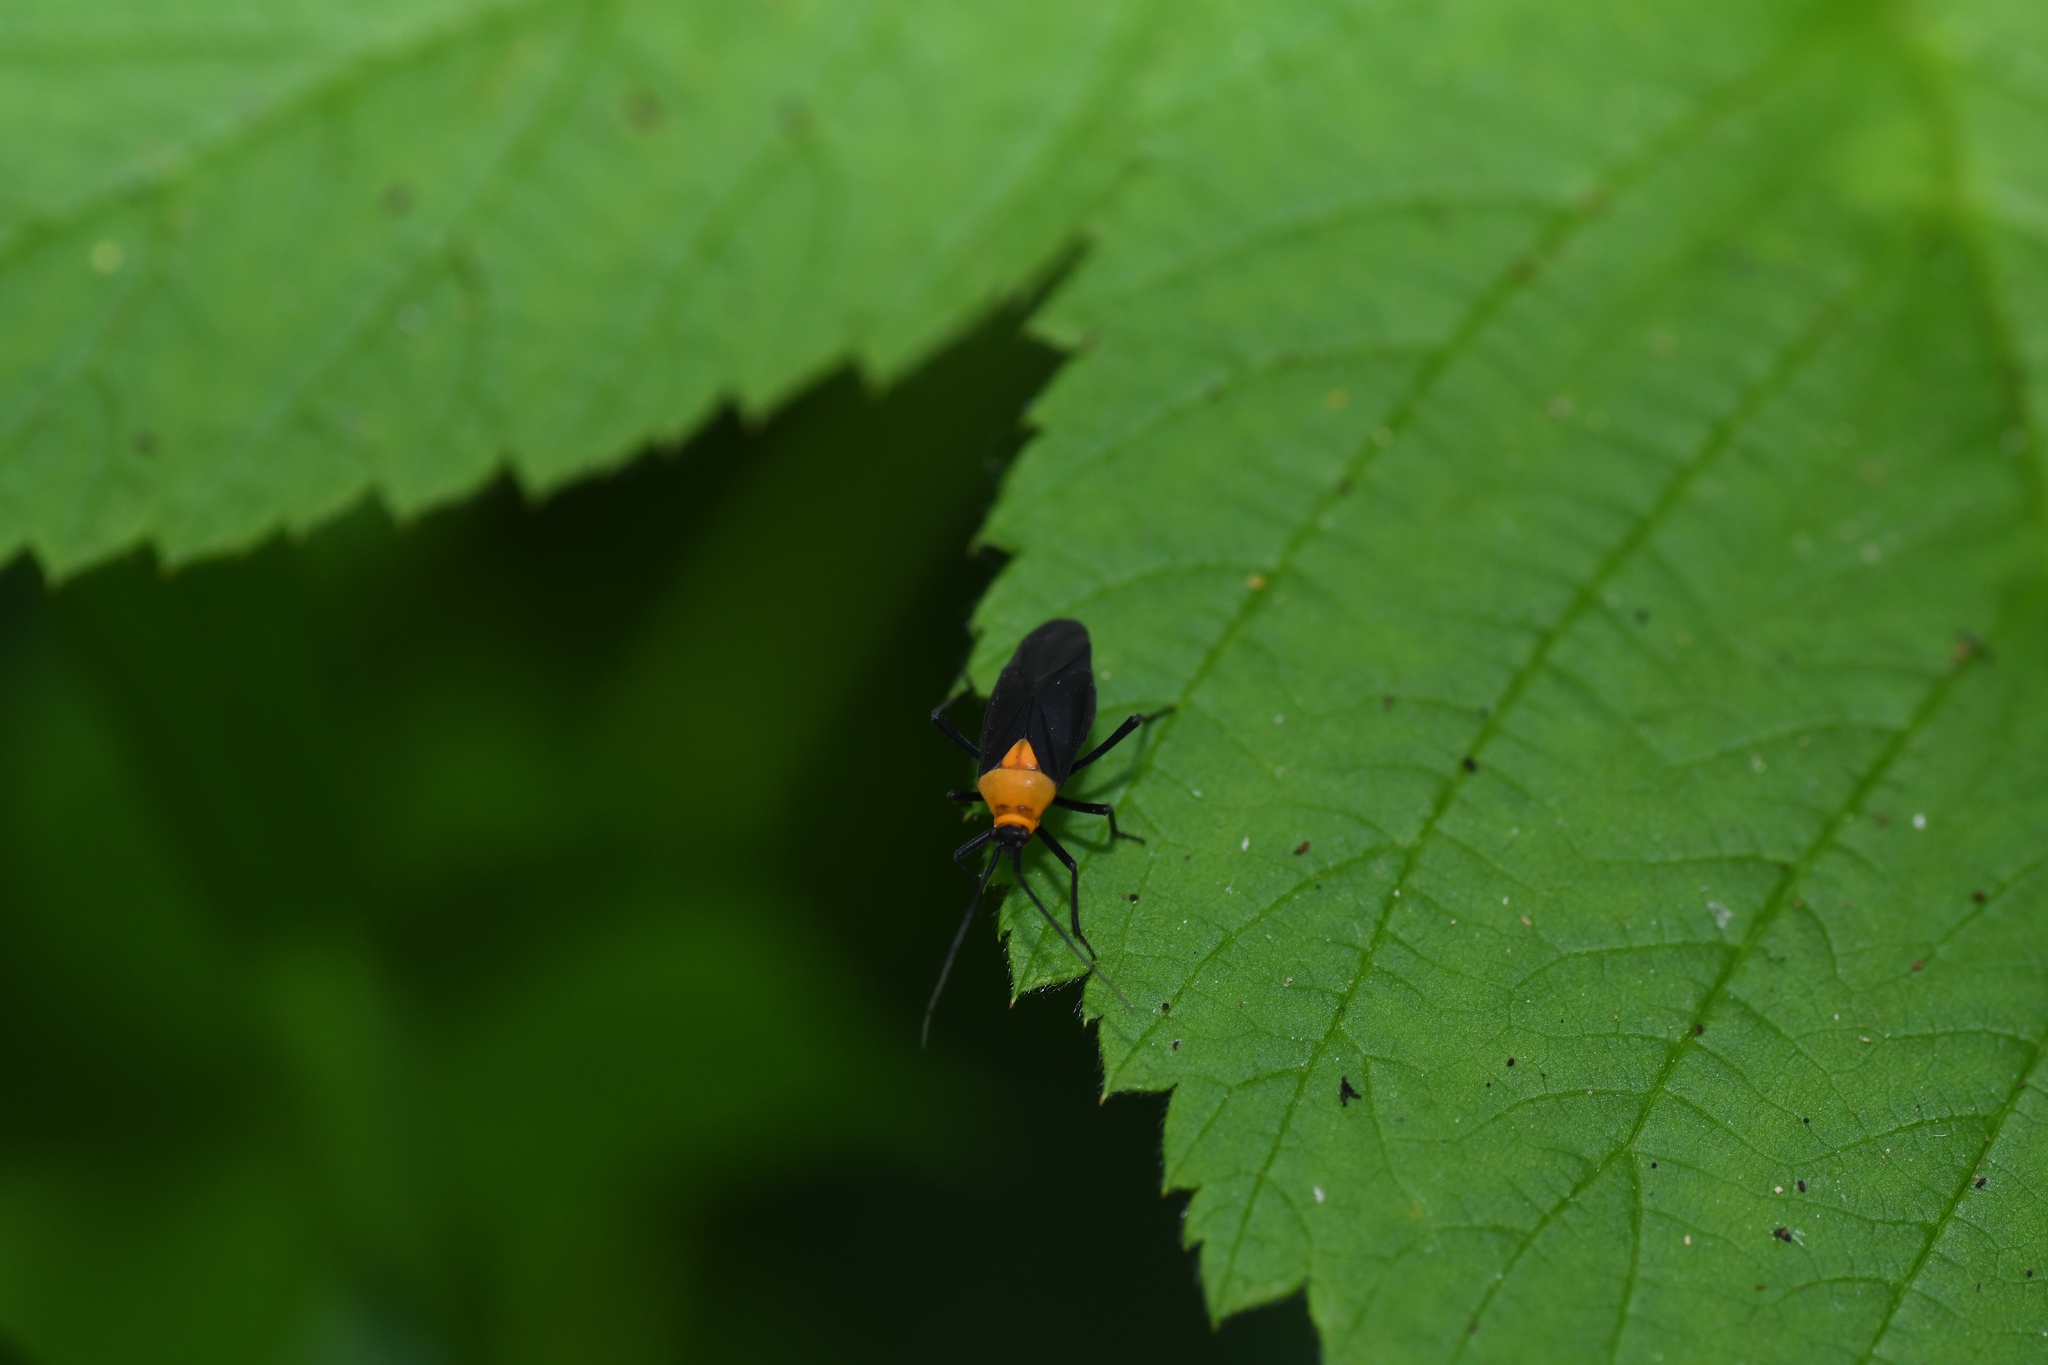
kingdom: Animalia
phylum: Arthropoda
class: Insecta
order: Hemiptera
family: Miridae
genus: Prepops
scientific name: Prepops insitivus
